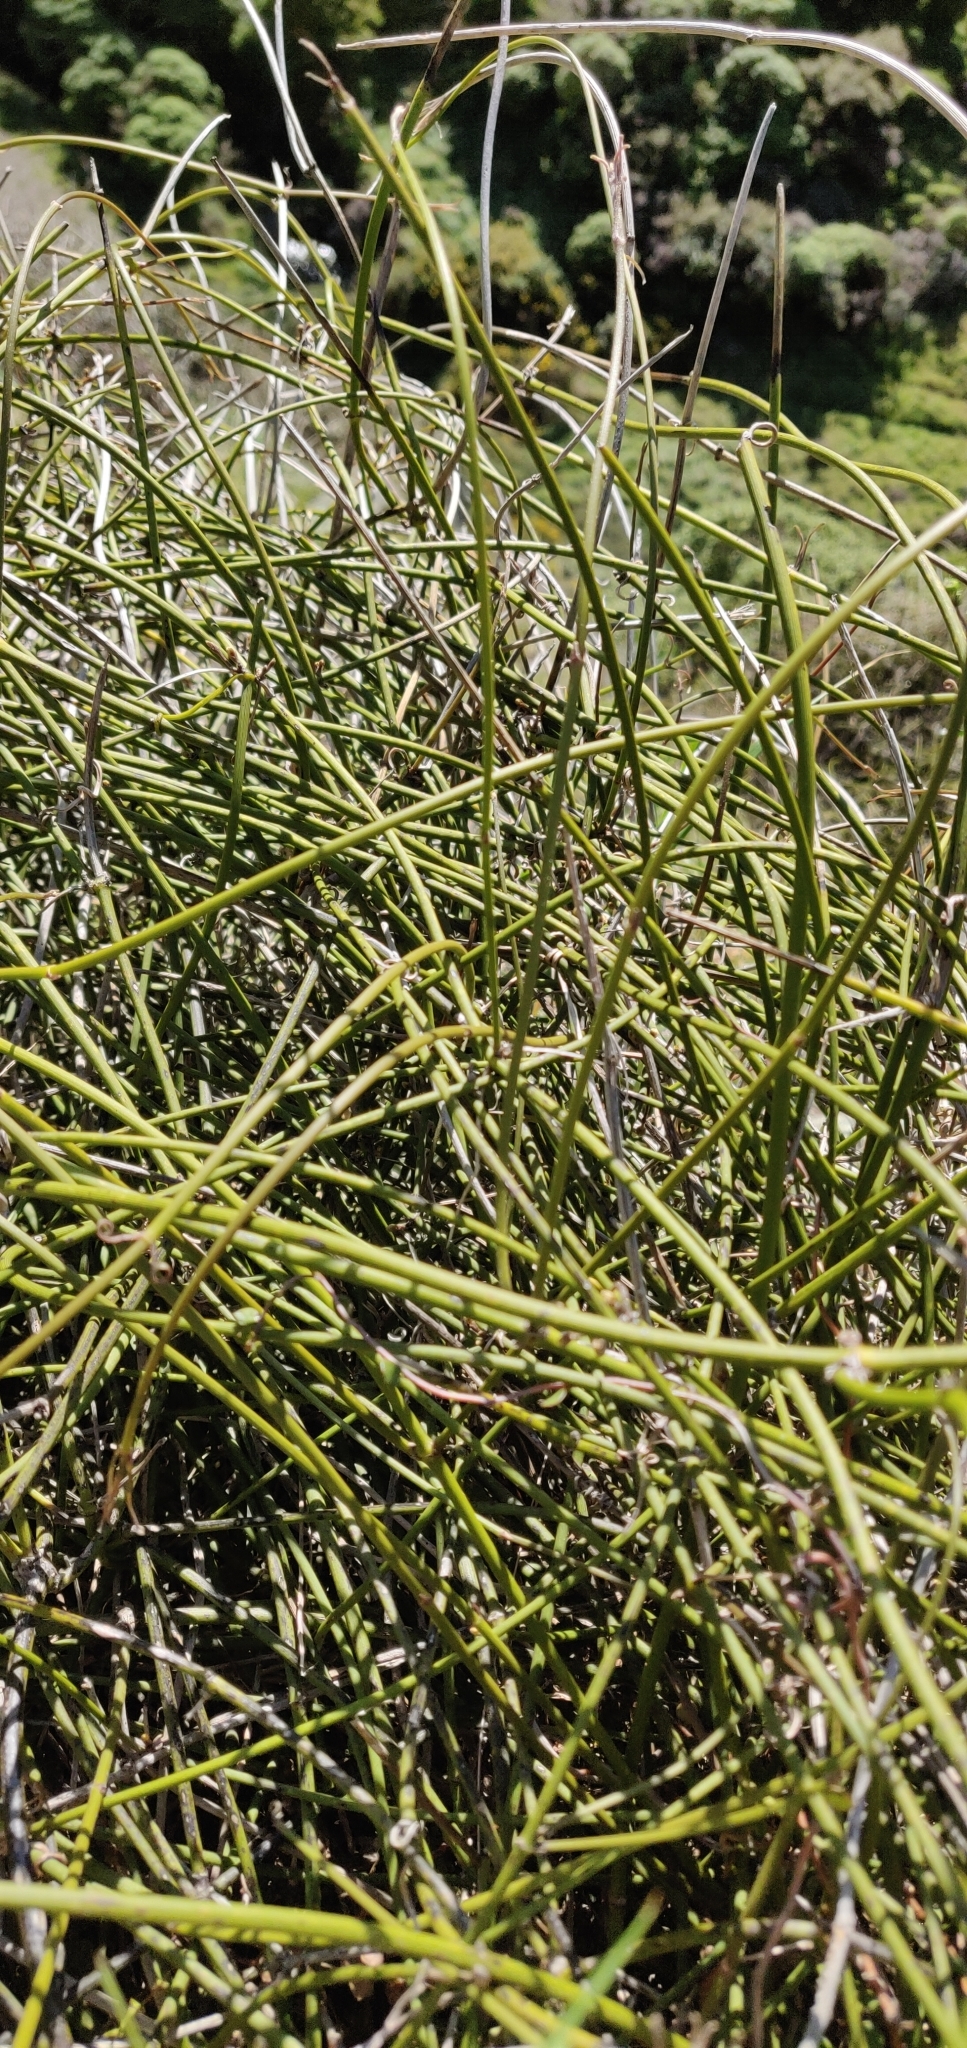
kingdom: Plantae
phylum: Tracheophyta
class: Magnoliopsida
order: Ranunculales
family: Ranunculaceae
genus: Clematis
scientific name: Clematis afoliata
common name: Rush-stem clematis
